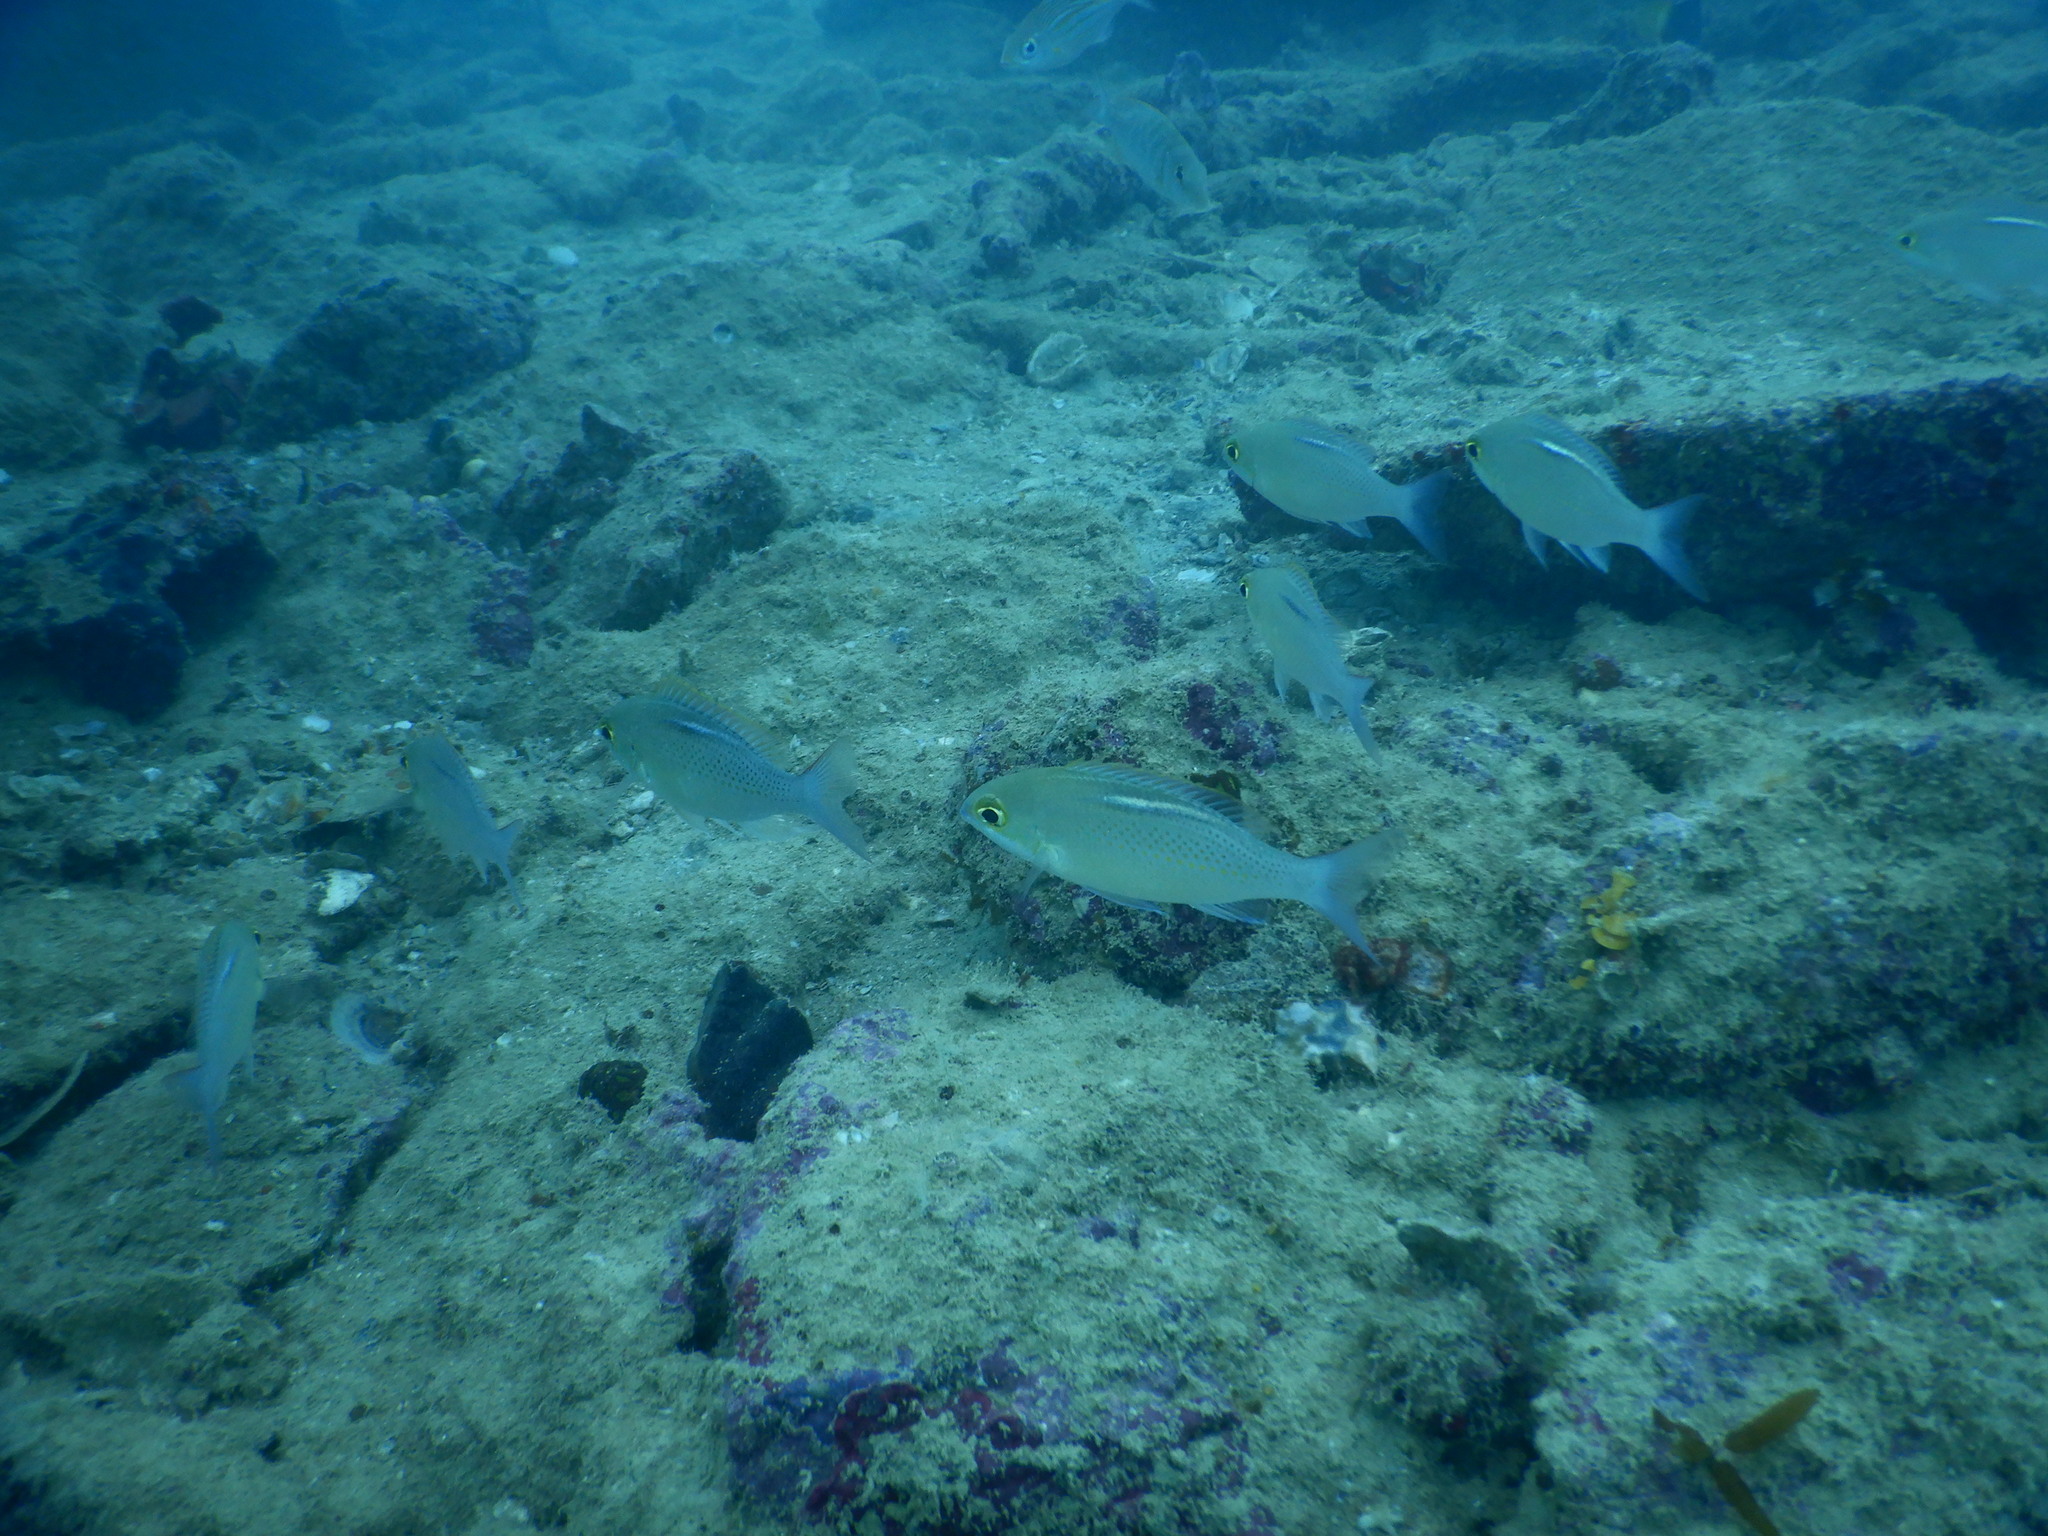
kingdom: Animalia
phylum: Chordata
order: Perciformes
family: Nemipteridae
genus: Scolopsis
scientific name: Scolopsis ciliata
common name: Ciliate spinecheek
